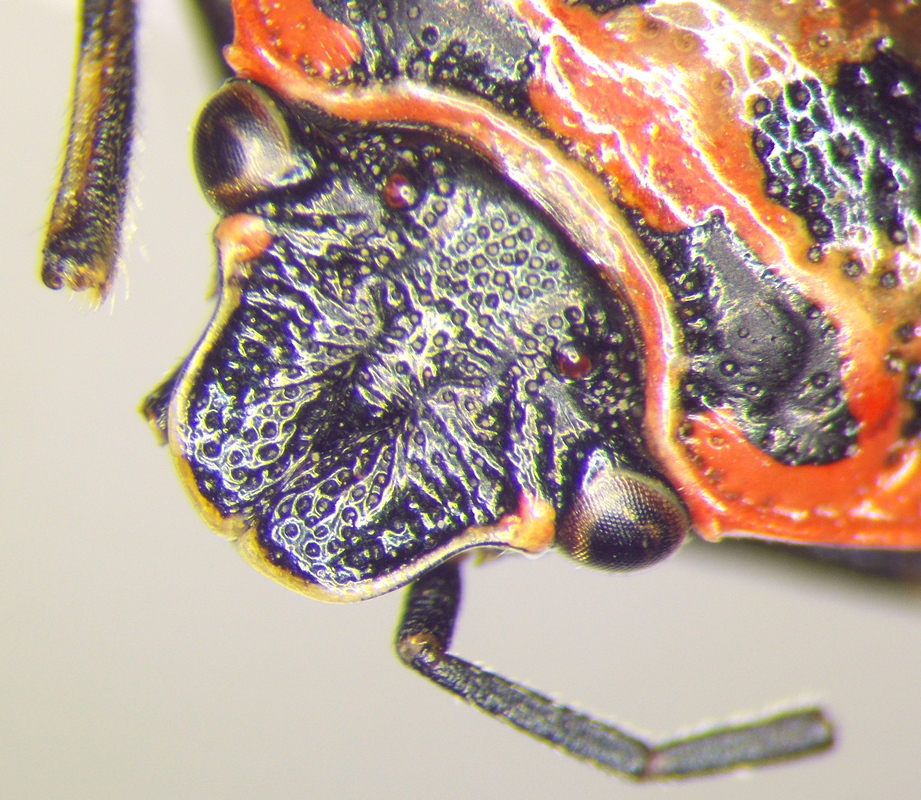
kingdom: Animalia
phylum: Arthropoda
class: Insecta
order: Hemiptera
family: Pentatomidae
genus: Eurydema
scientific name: Eurydema ornata
